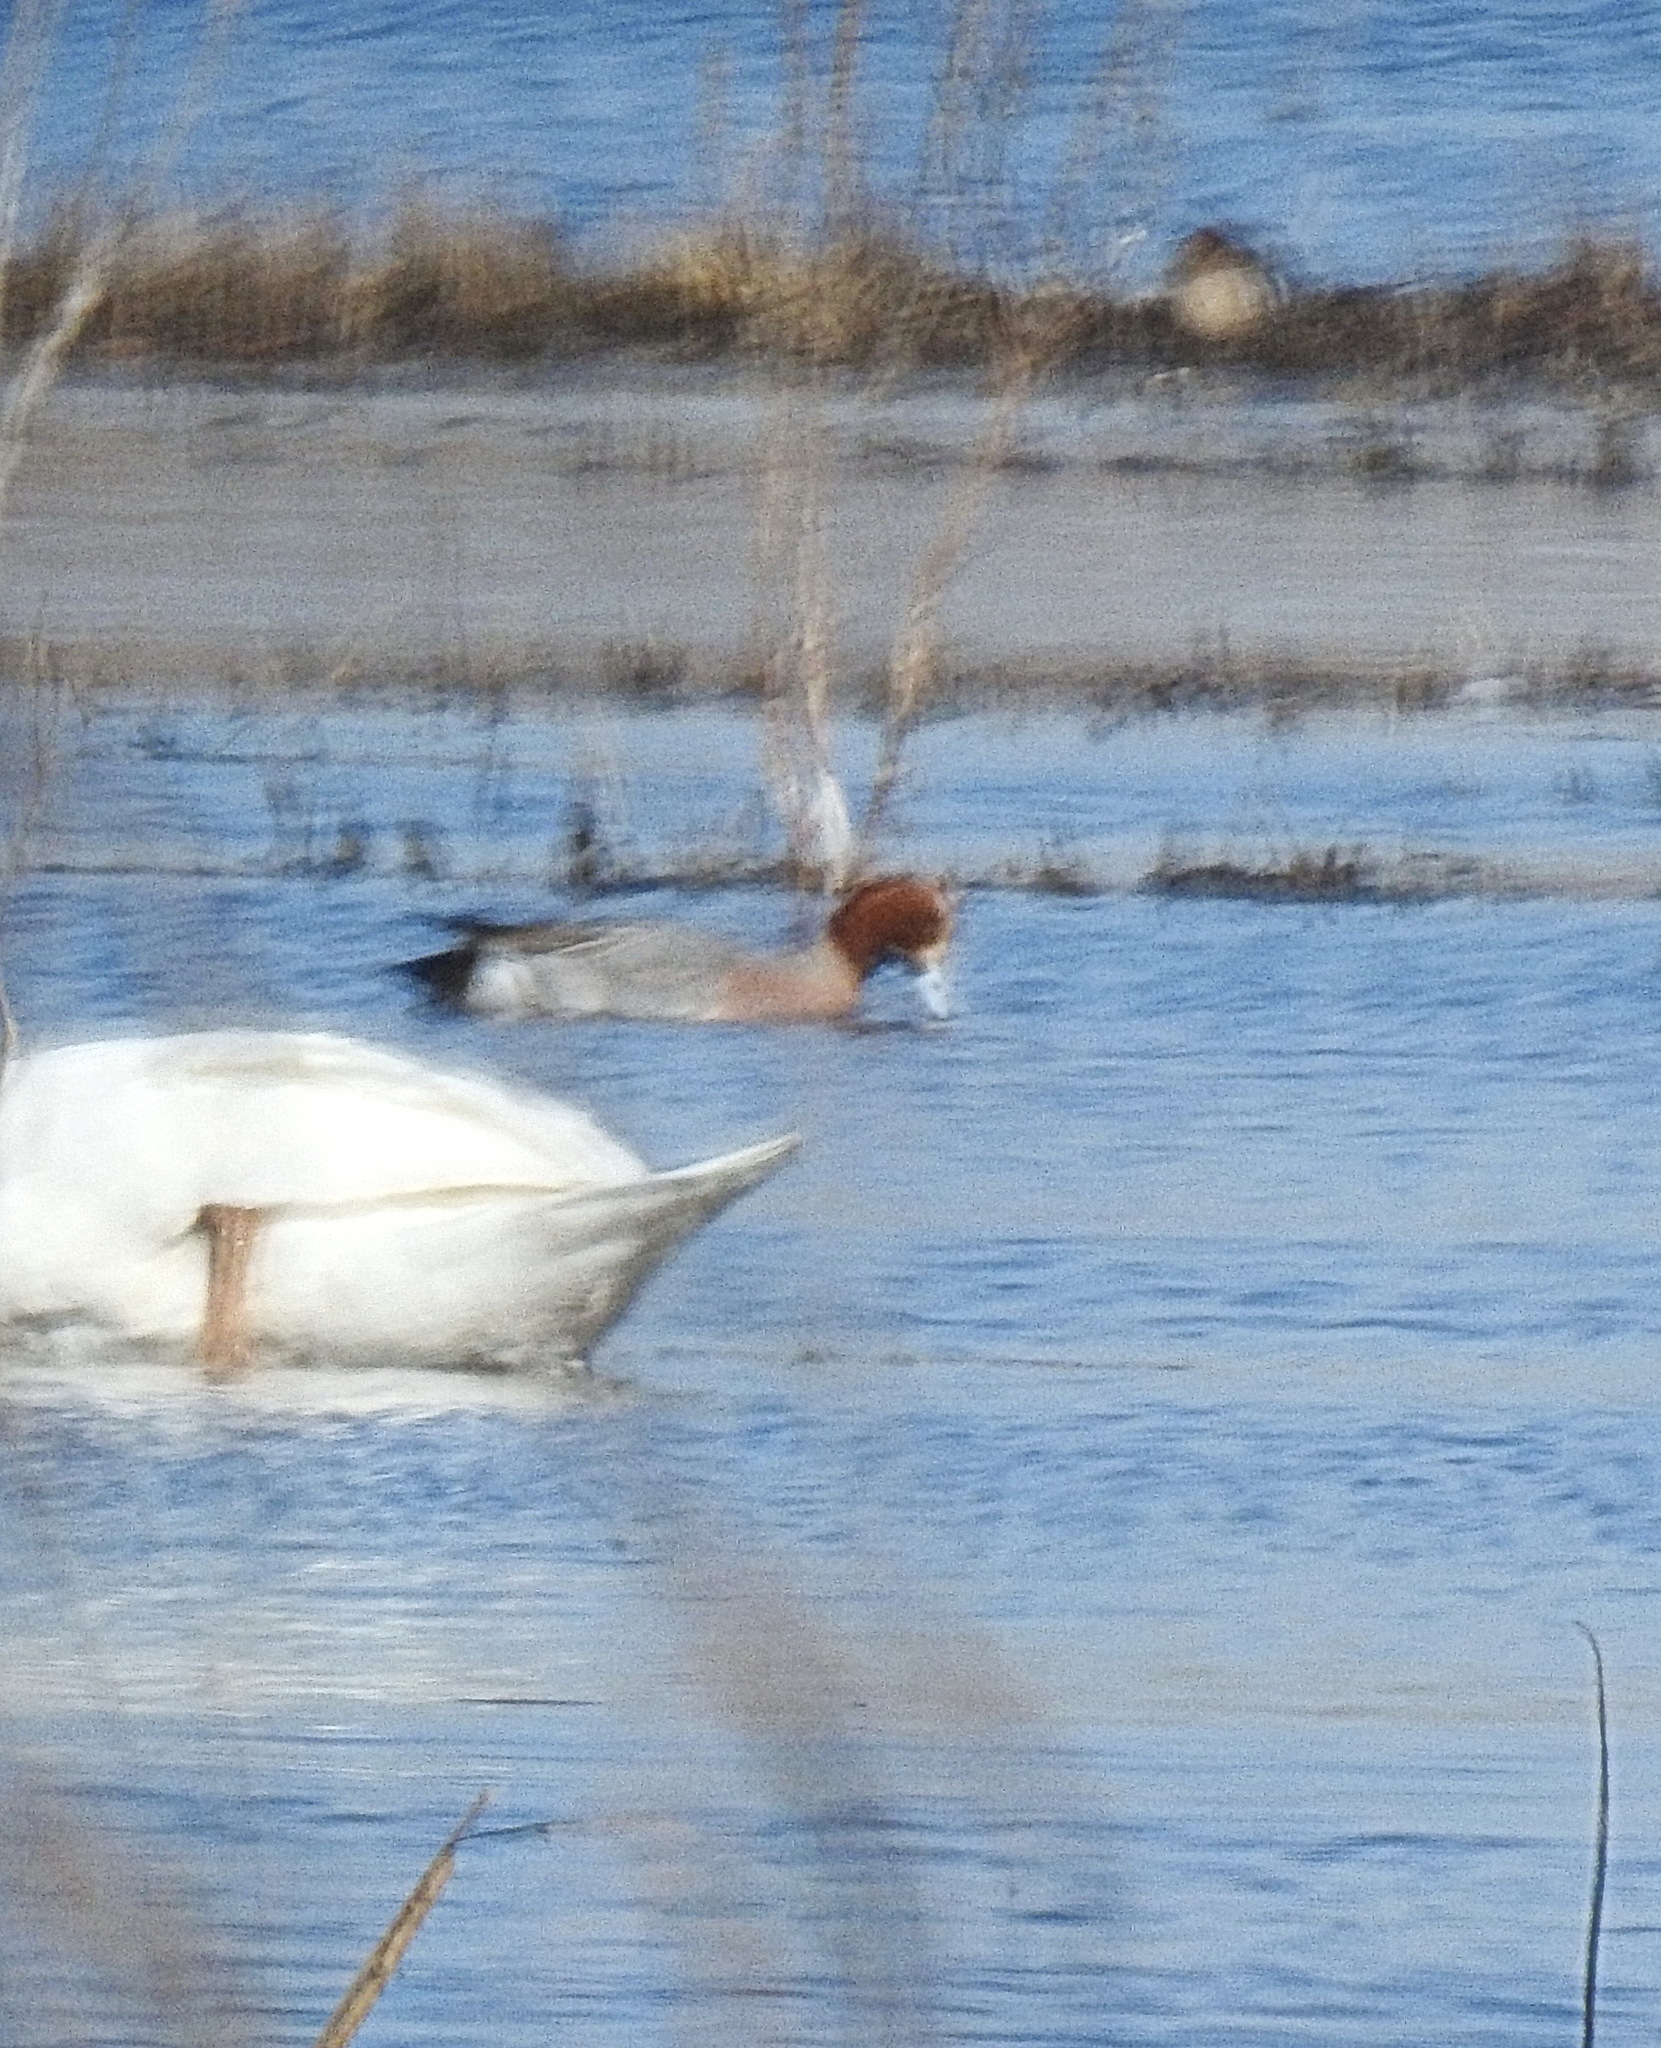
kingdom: Animalia
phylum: Chordata
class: Aves
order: Anseriformes
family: Anatidae
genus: Mareca
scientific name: Mareca penelope
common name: Eurasian wigeon
